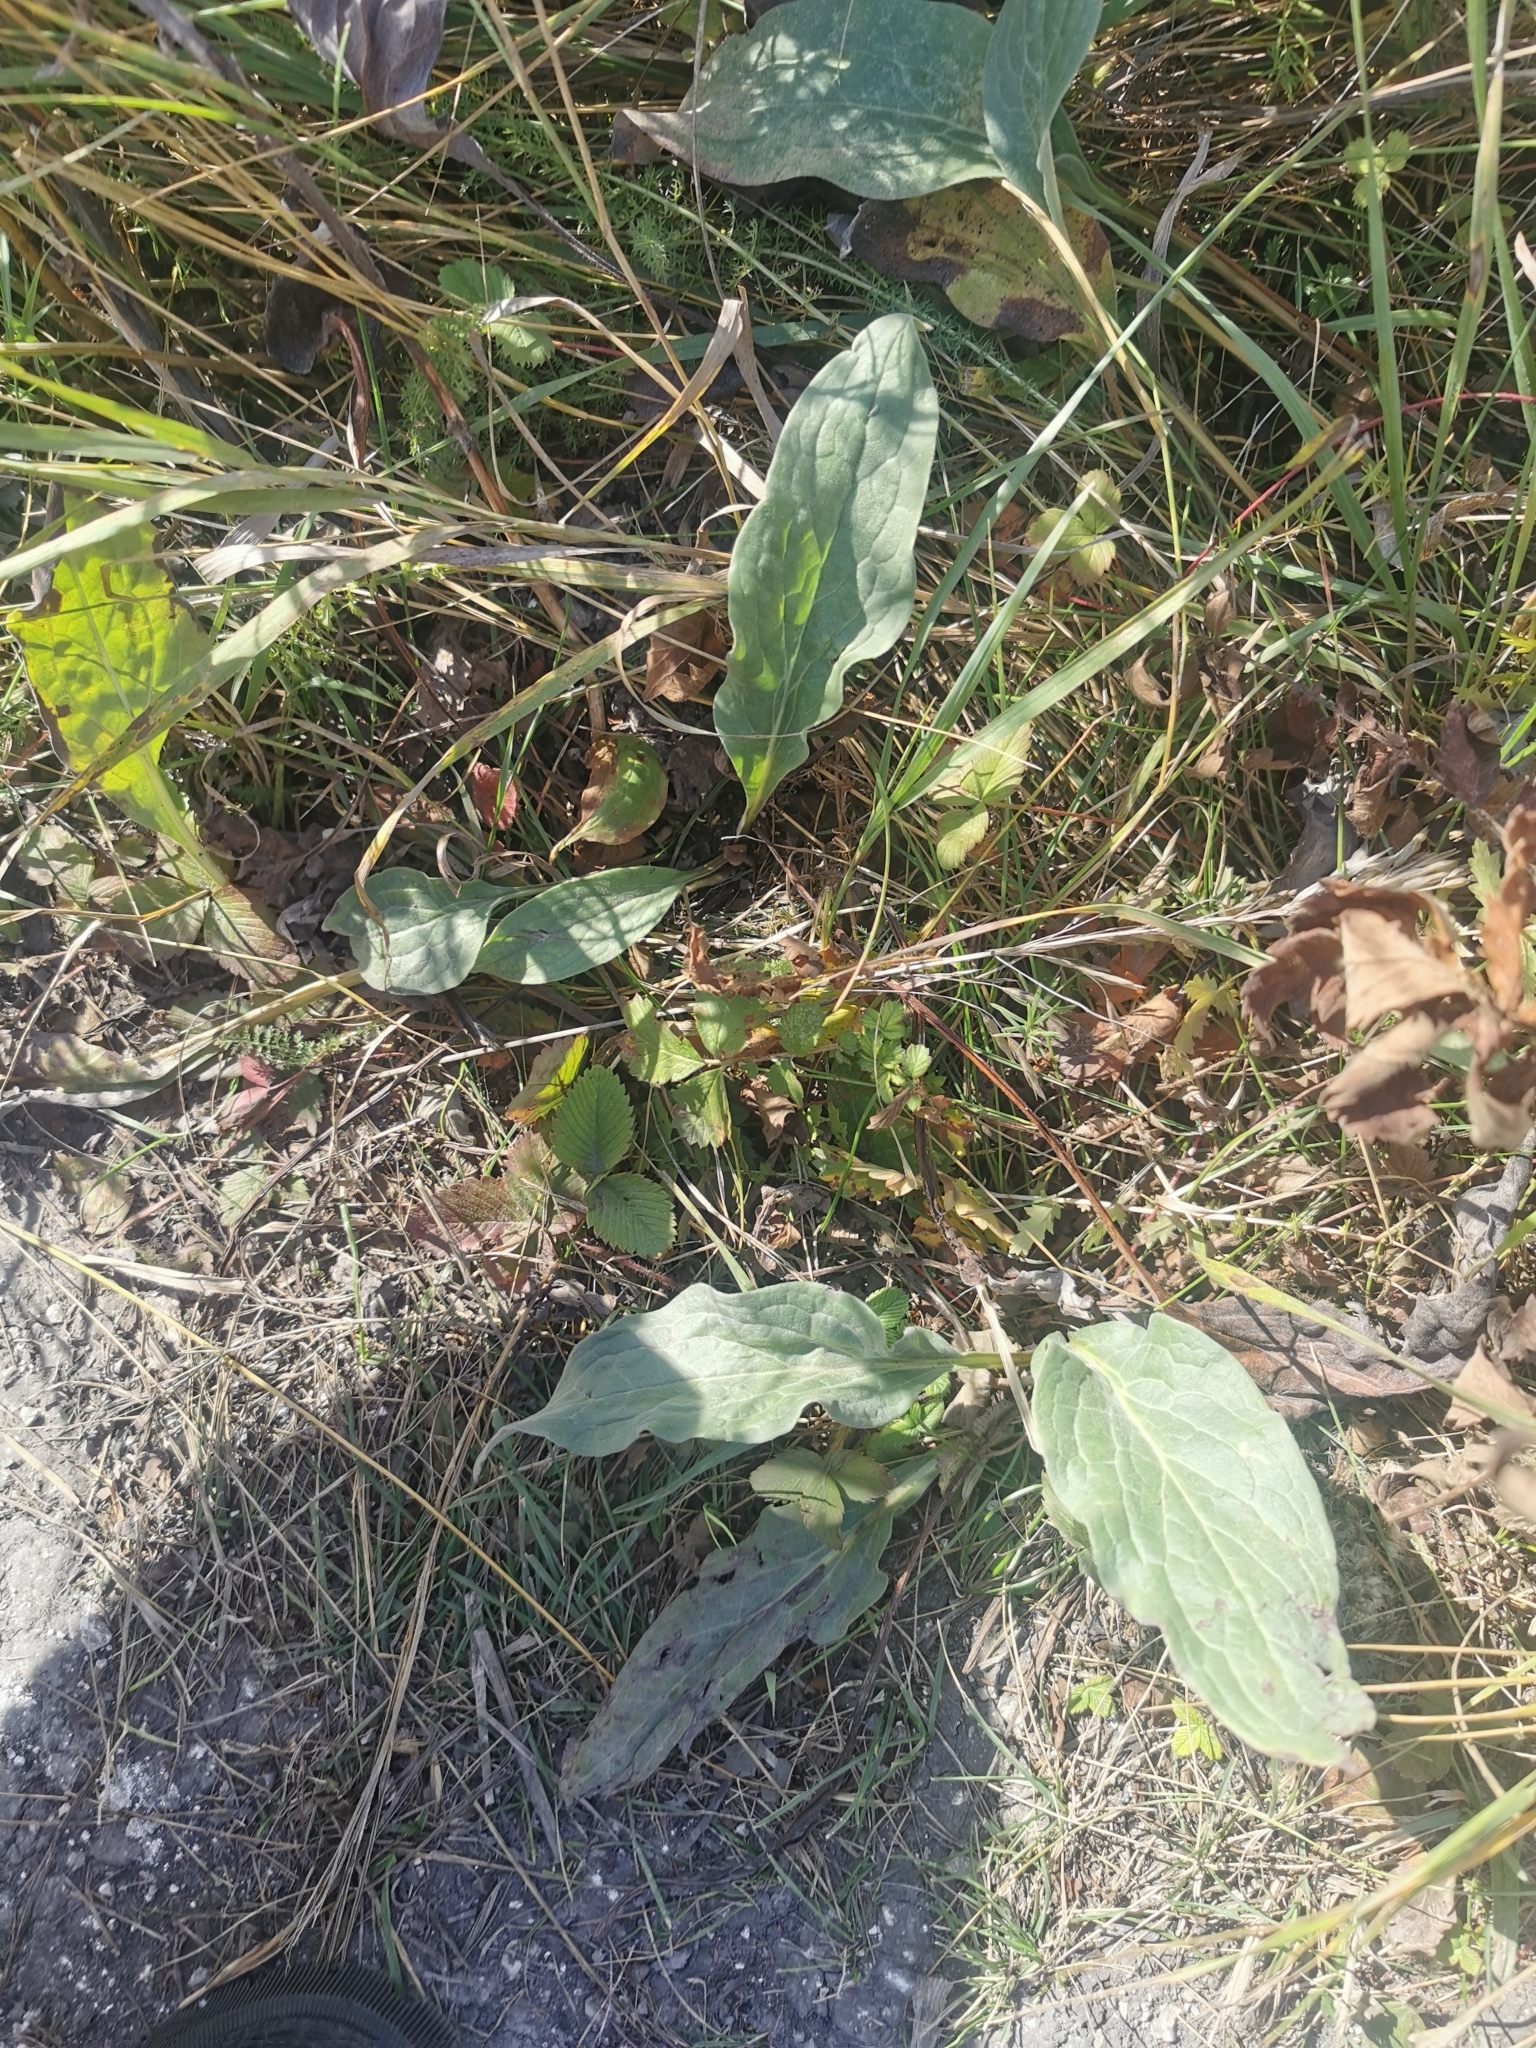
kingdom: Plantae
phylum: Tracheophyta
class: Magnoliopsida
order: Boraginales
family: Boraginaceae
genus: Cynoglossum
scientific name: Cynoglossum officinale
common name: Hound's-tongue
